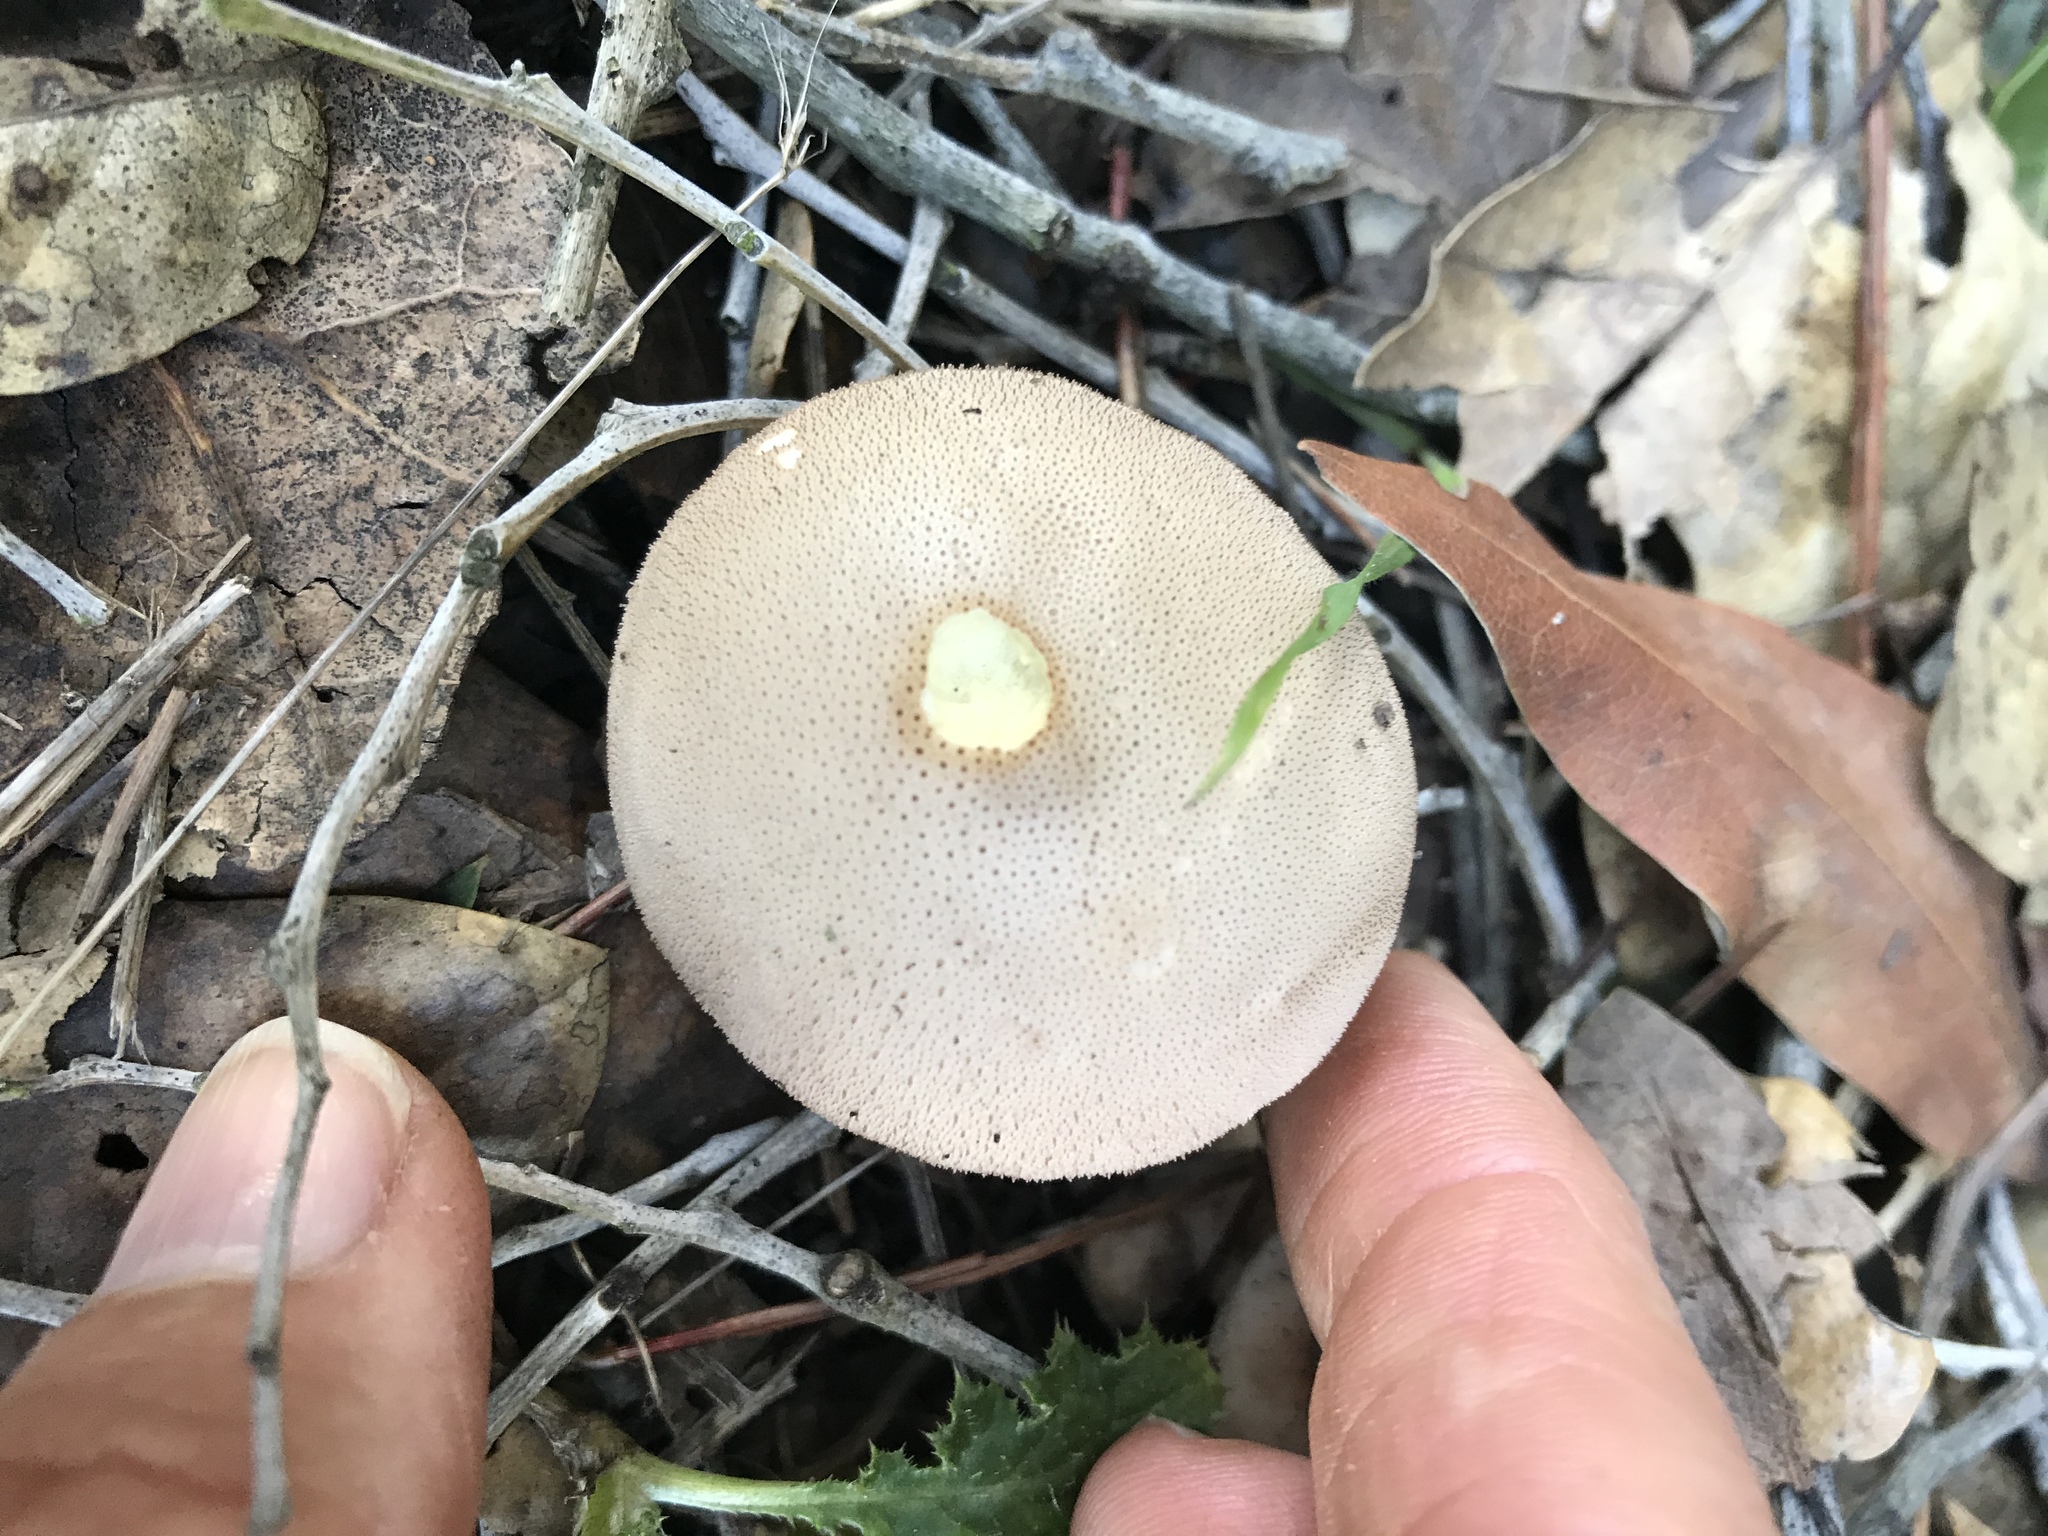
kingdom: Fungi
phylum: Basidiomycota
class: Agaricomycetes
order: Agaricales
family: Lycoperdaceae
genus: Lycoperdon
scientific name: Lycoperdon perlatum
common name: Common puffball
